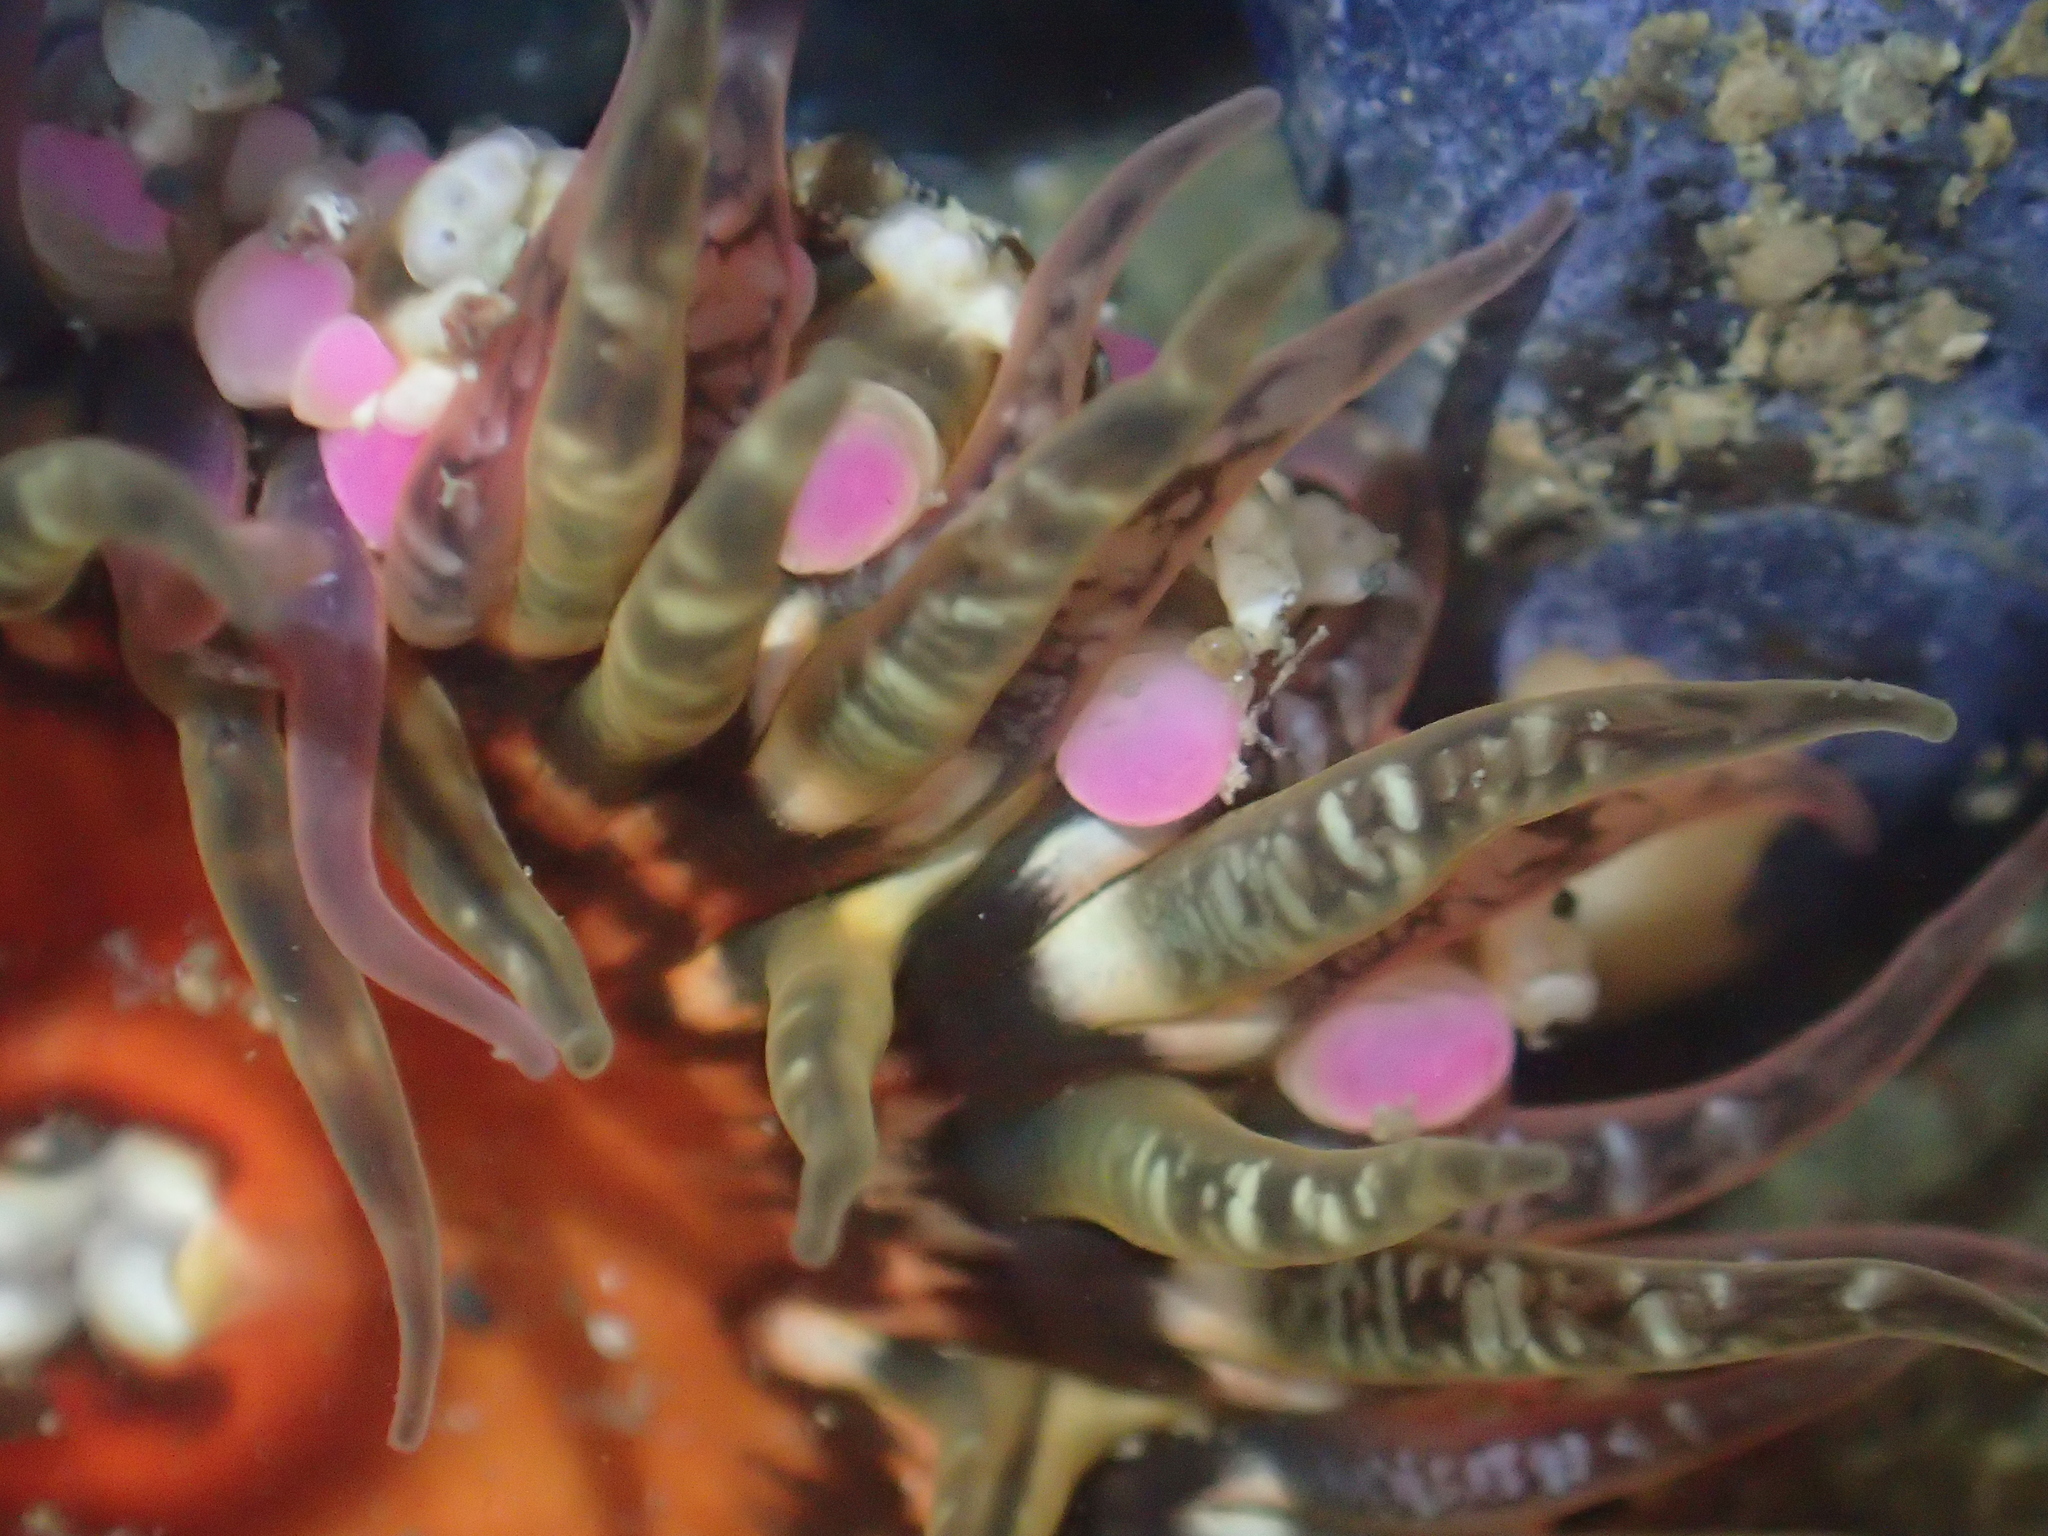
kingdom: Animalia
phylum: Cnidaria
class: Anthozoa
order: Actiniaria
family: Actiniidae
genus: Oulactis
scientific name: Oulactis muscosa
